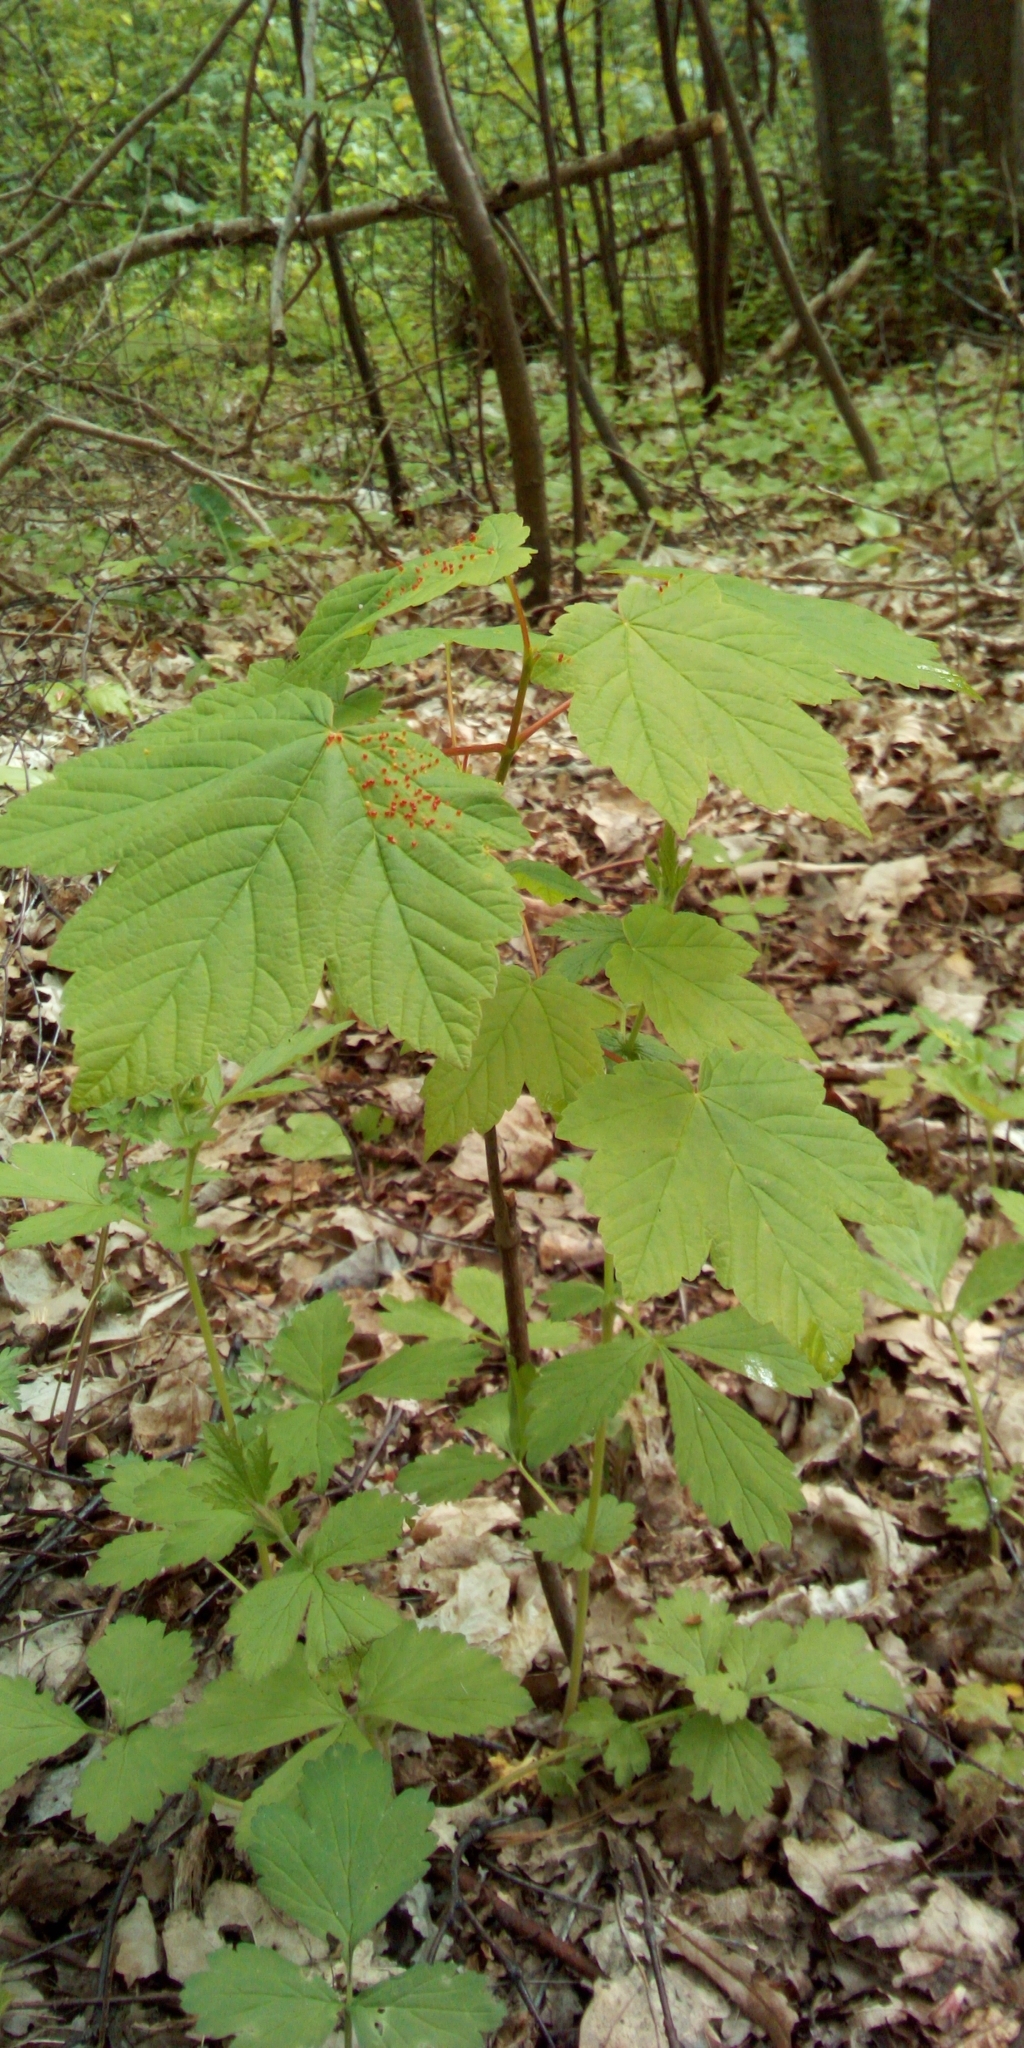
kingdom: Plantae
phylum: Tracheophyta
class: Magnoliopsida
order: Sapindales
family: Sapindaceae
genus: Acer
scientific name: Acer pseudoplatanus
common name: Sycamore
